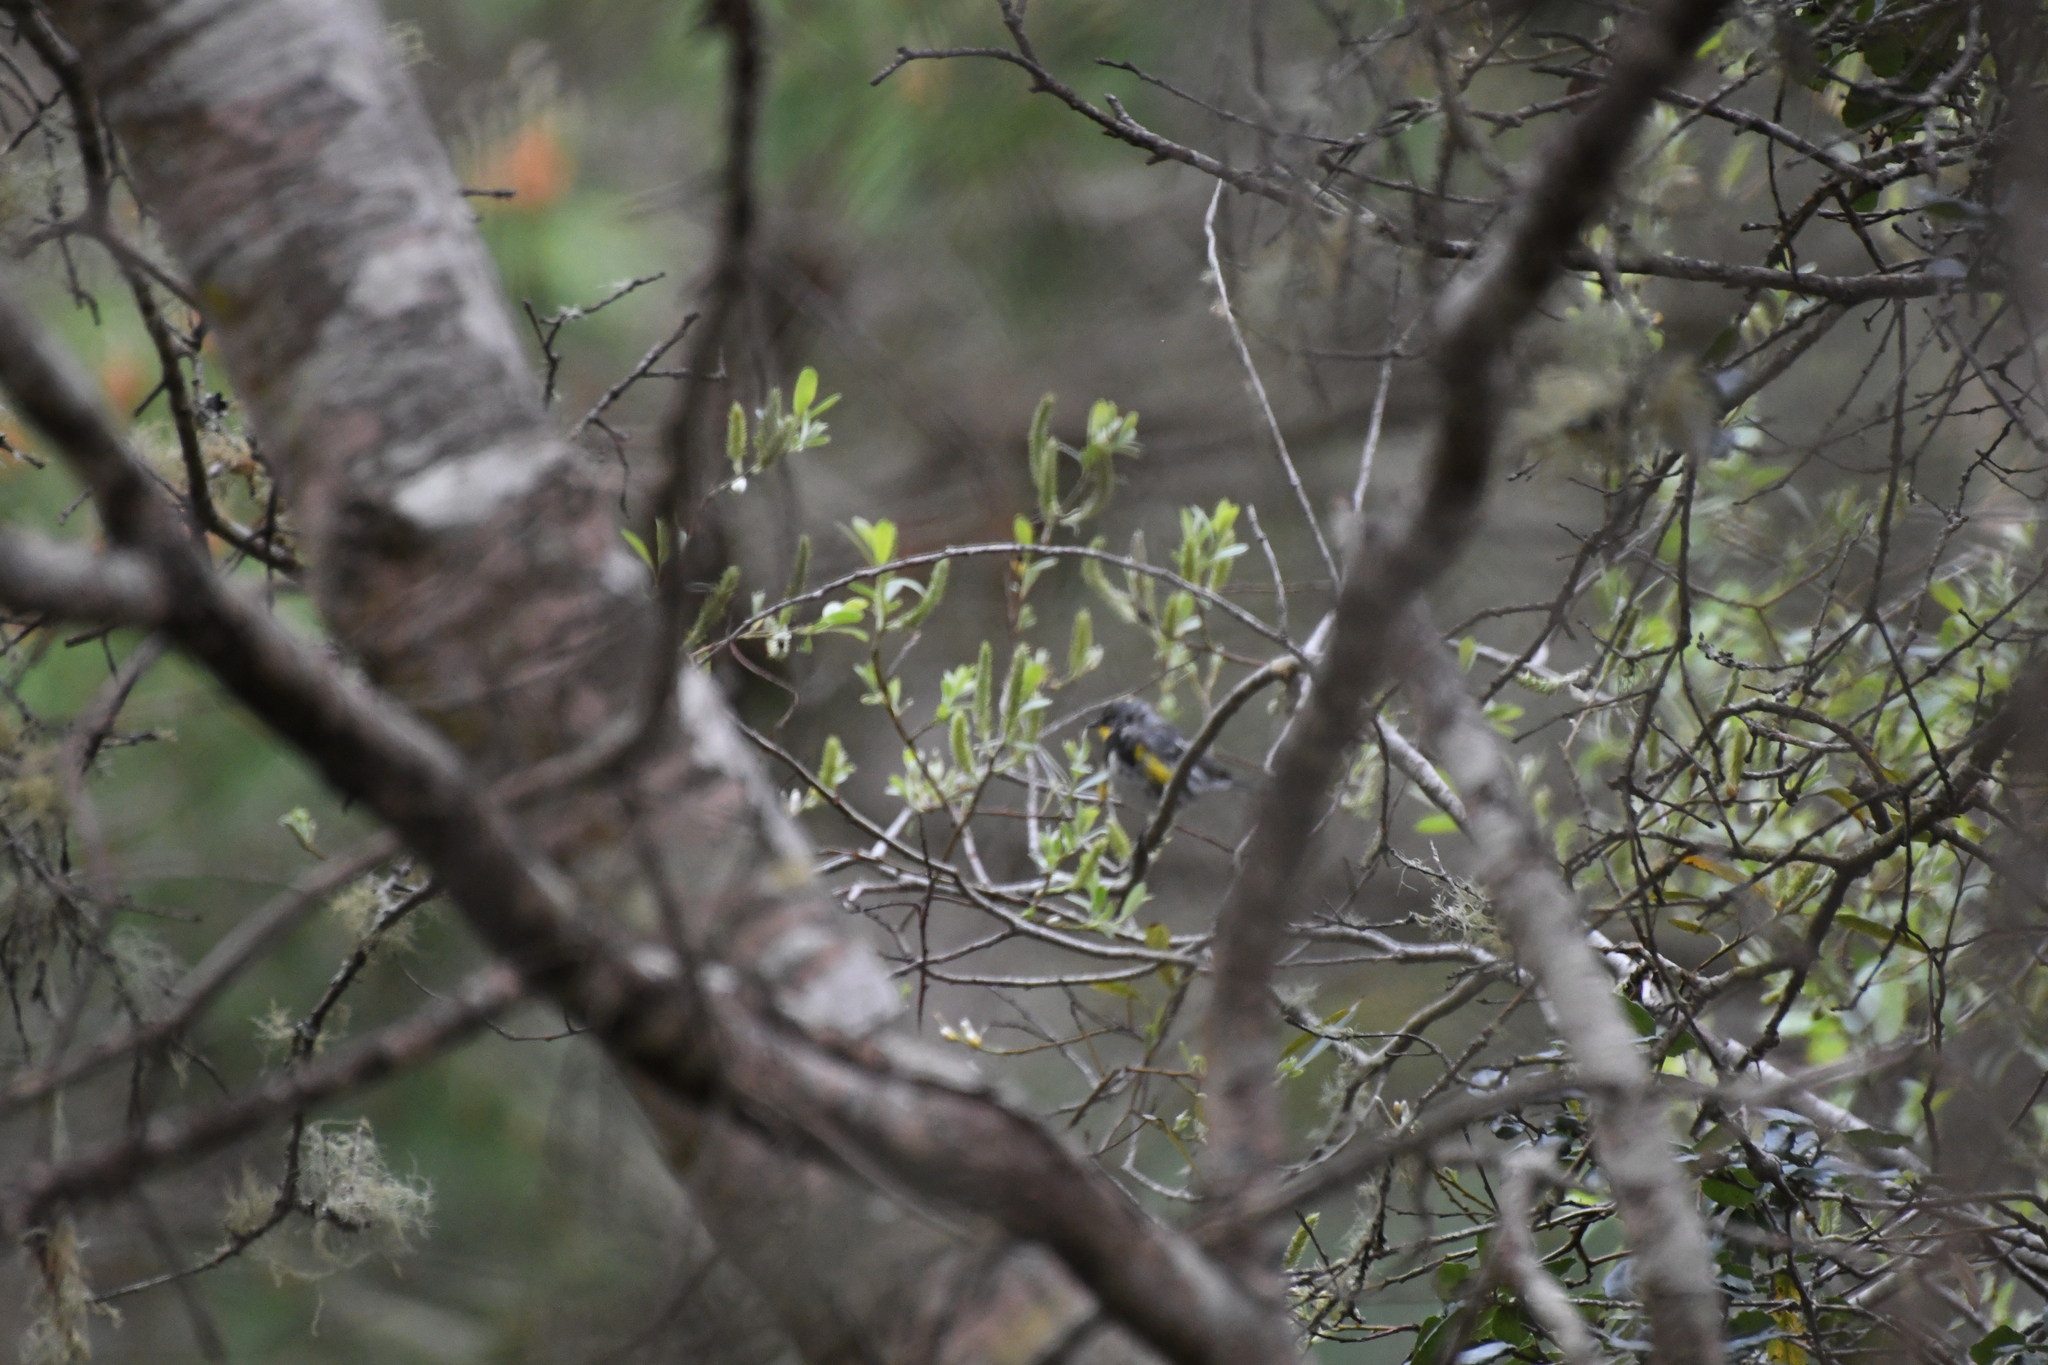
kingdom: Animalia
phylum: Chordata
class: Aves
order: Passeriformes
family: Parulidae
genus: Setophaga
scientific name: Setophaga auduboni
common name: Audubon's warbler
